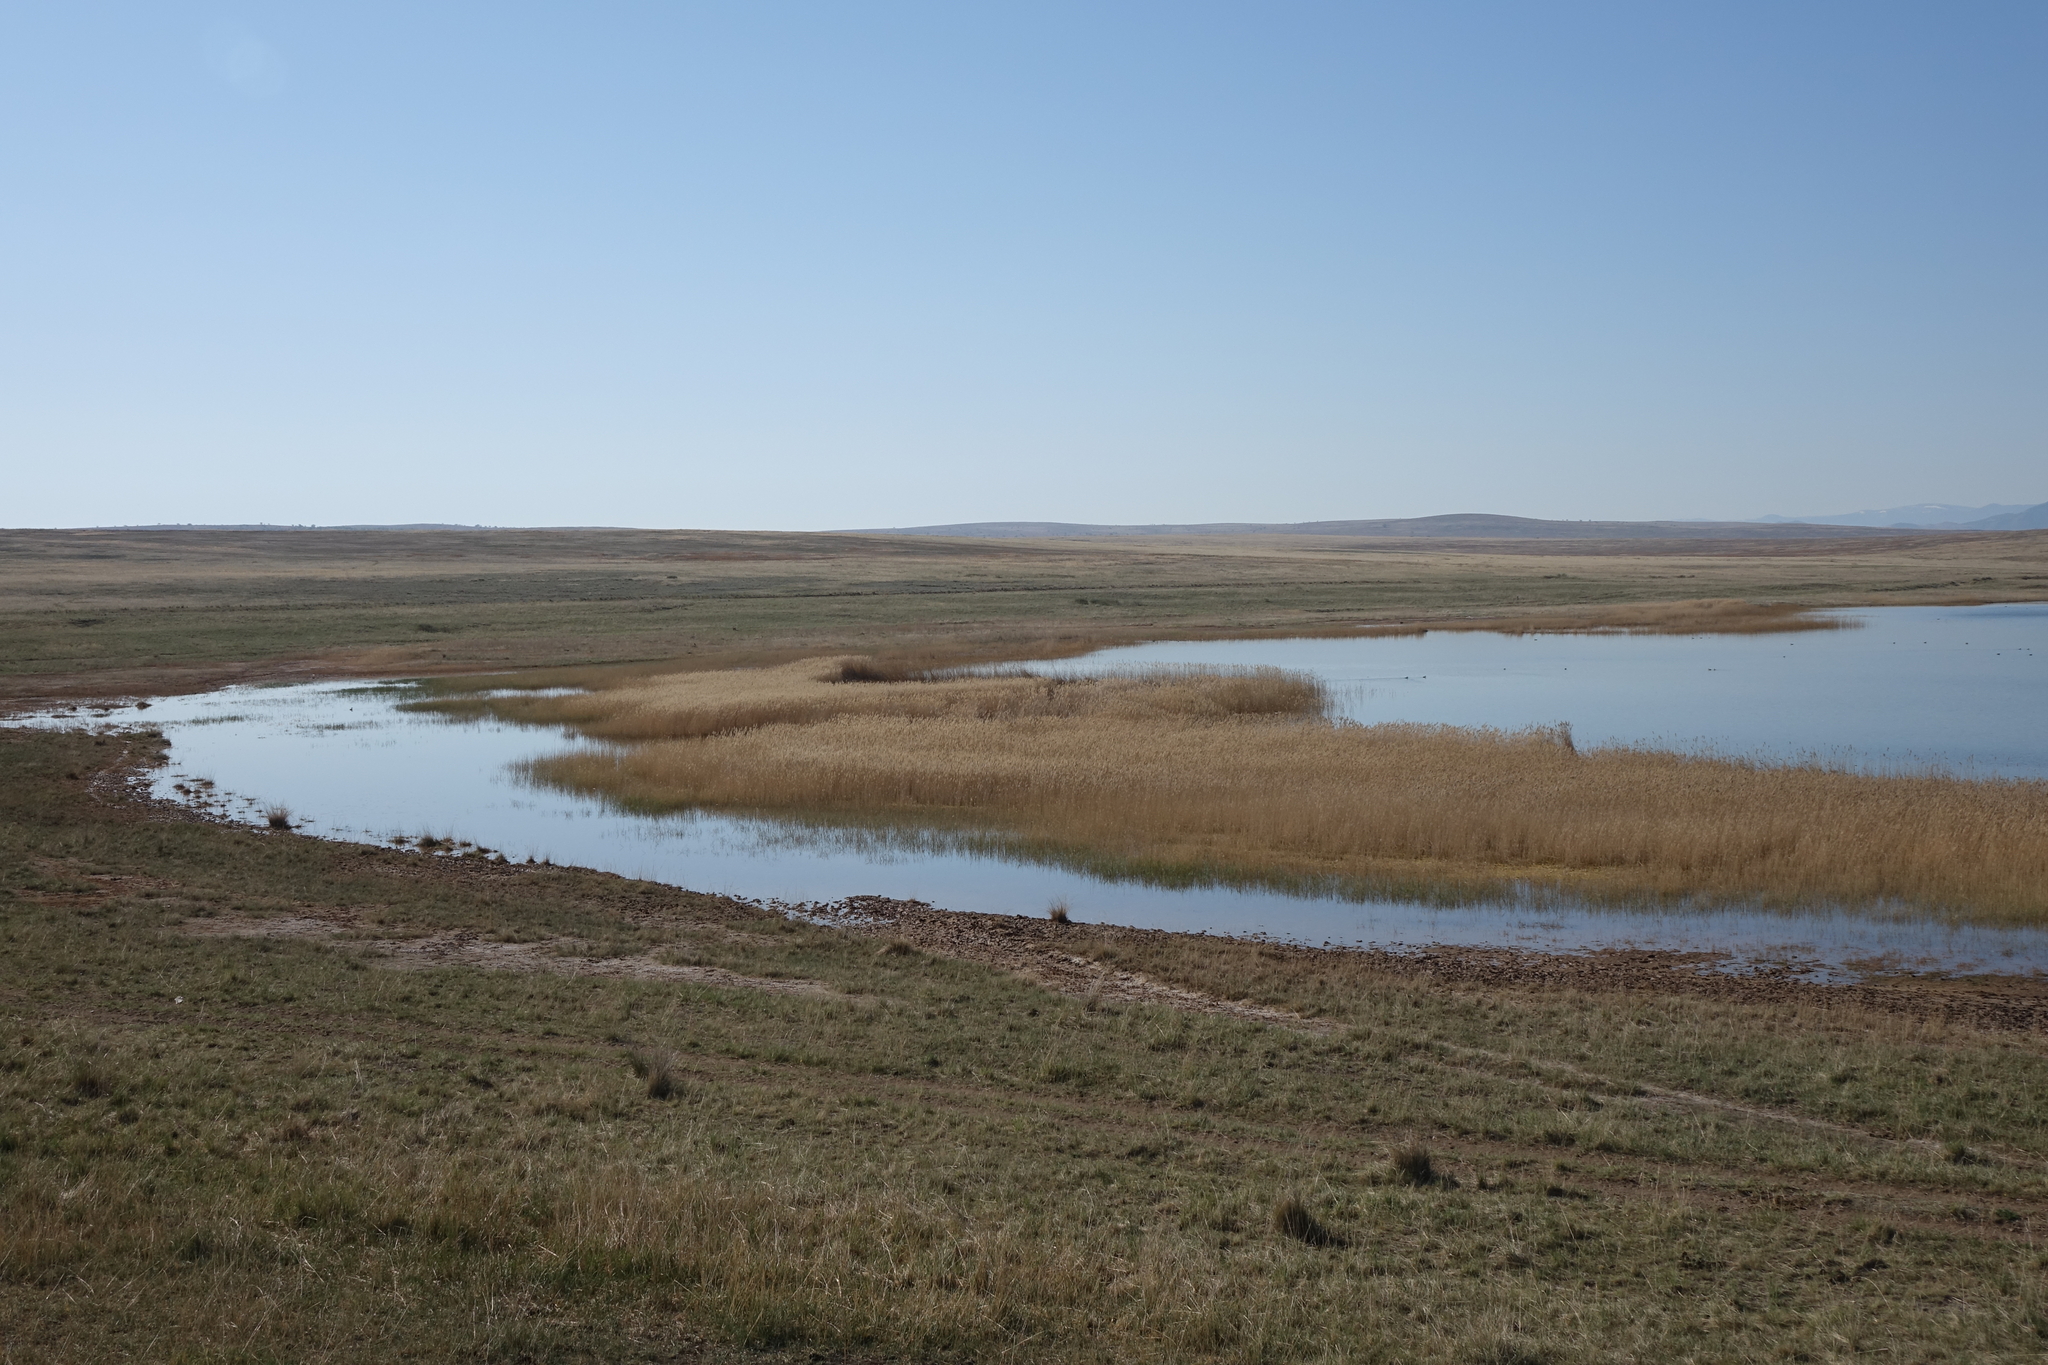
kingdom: Plantae
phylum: Tracheophyta
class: Liliopsida
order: Poales
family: Poaceae
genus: Phragmites
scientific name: Phragmites australis
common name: Common reed
